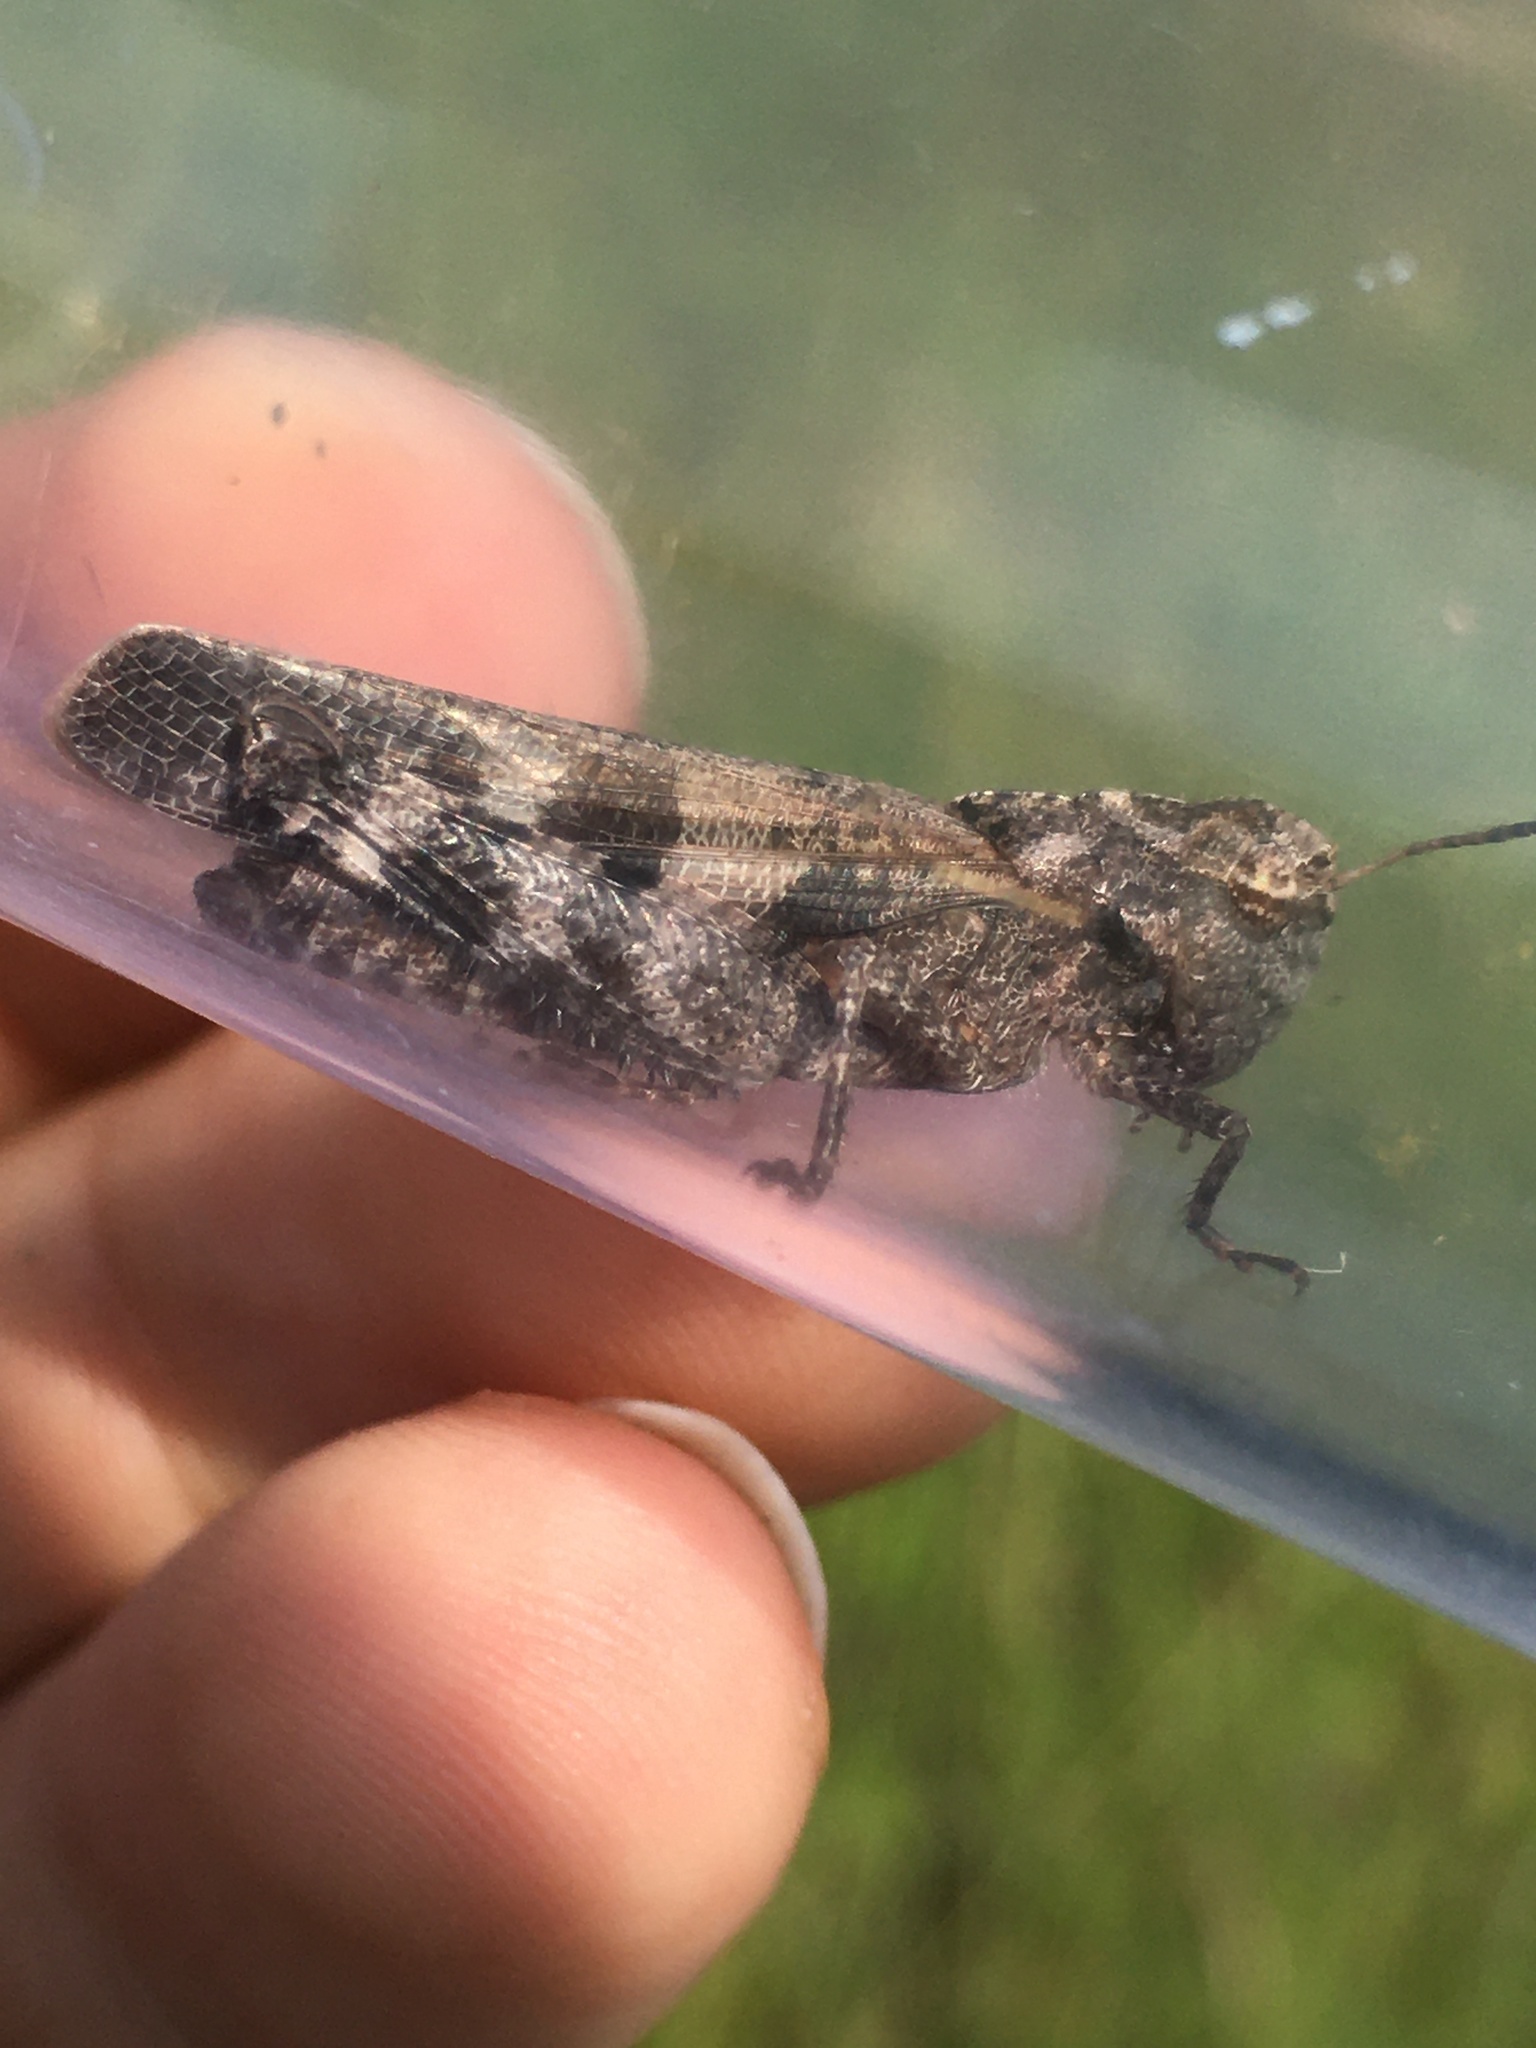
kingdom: Animalia
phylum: Arthropoda
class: Insecta
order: Orthoptera
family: Acrididae
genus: Encoptolophus
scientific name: Encoptolophus sordidus
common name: Dusky grasshopper
